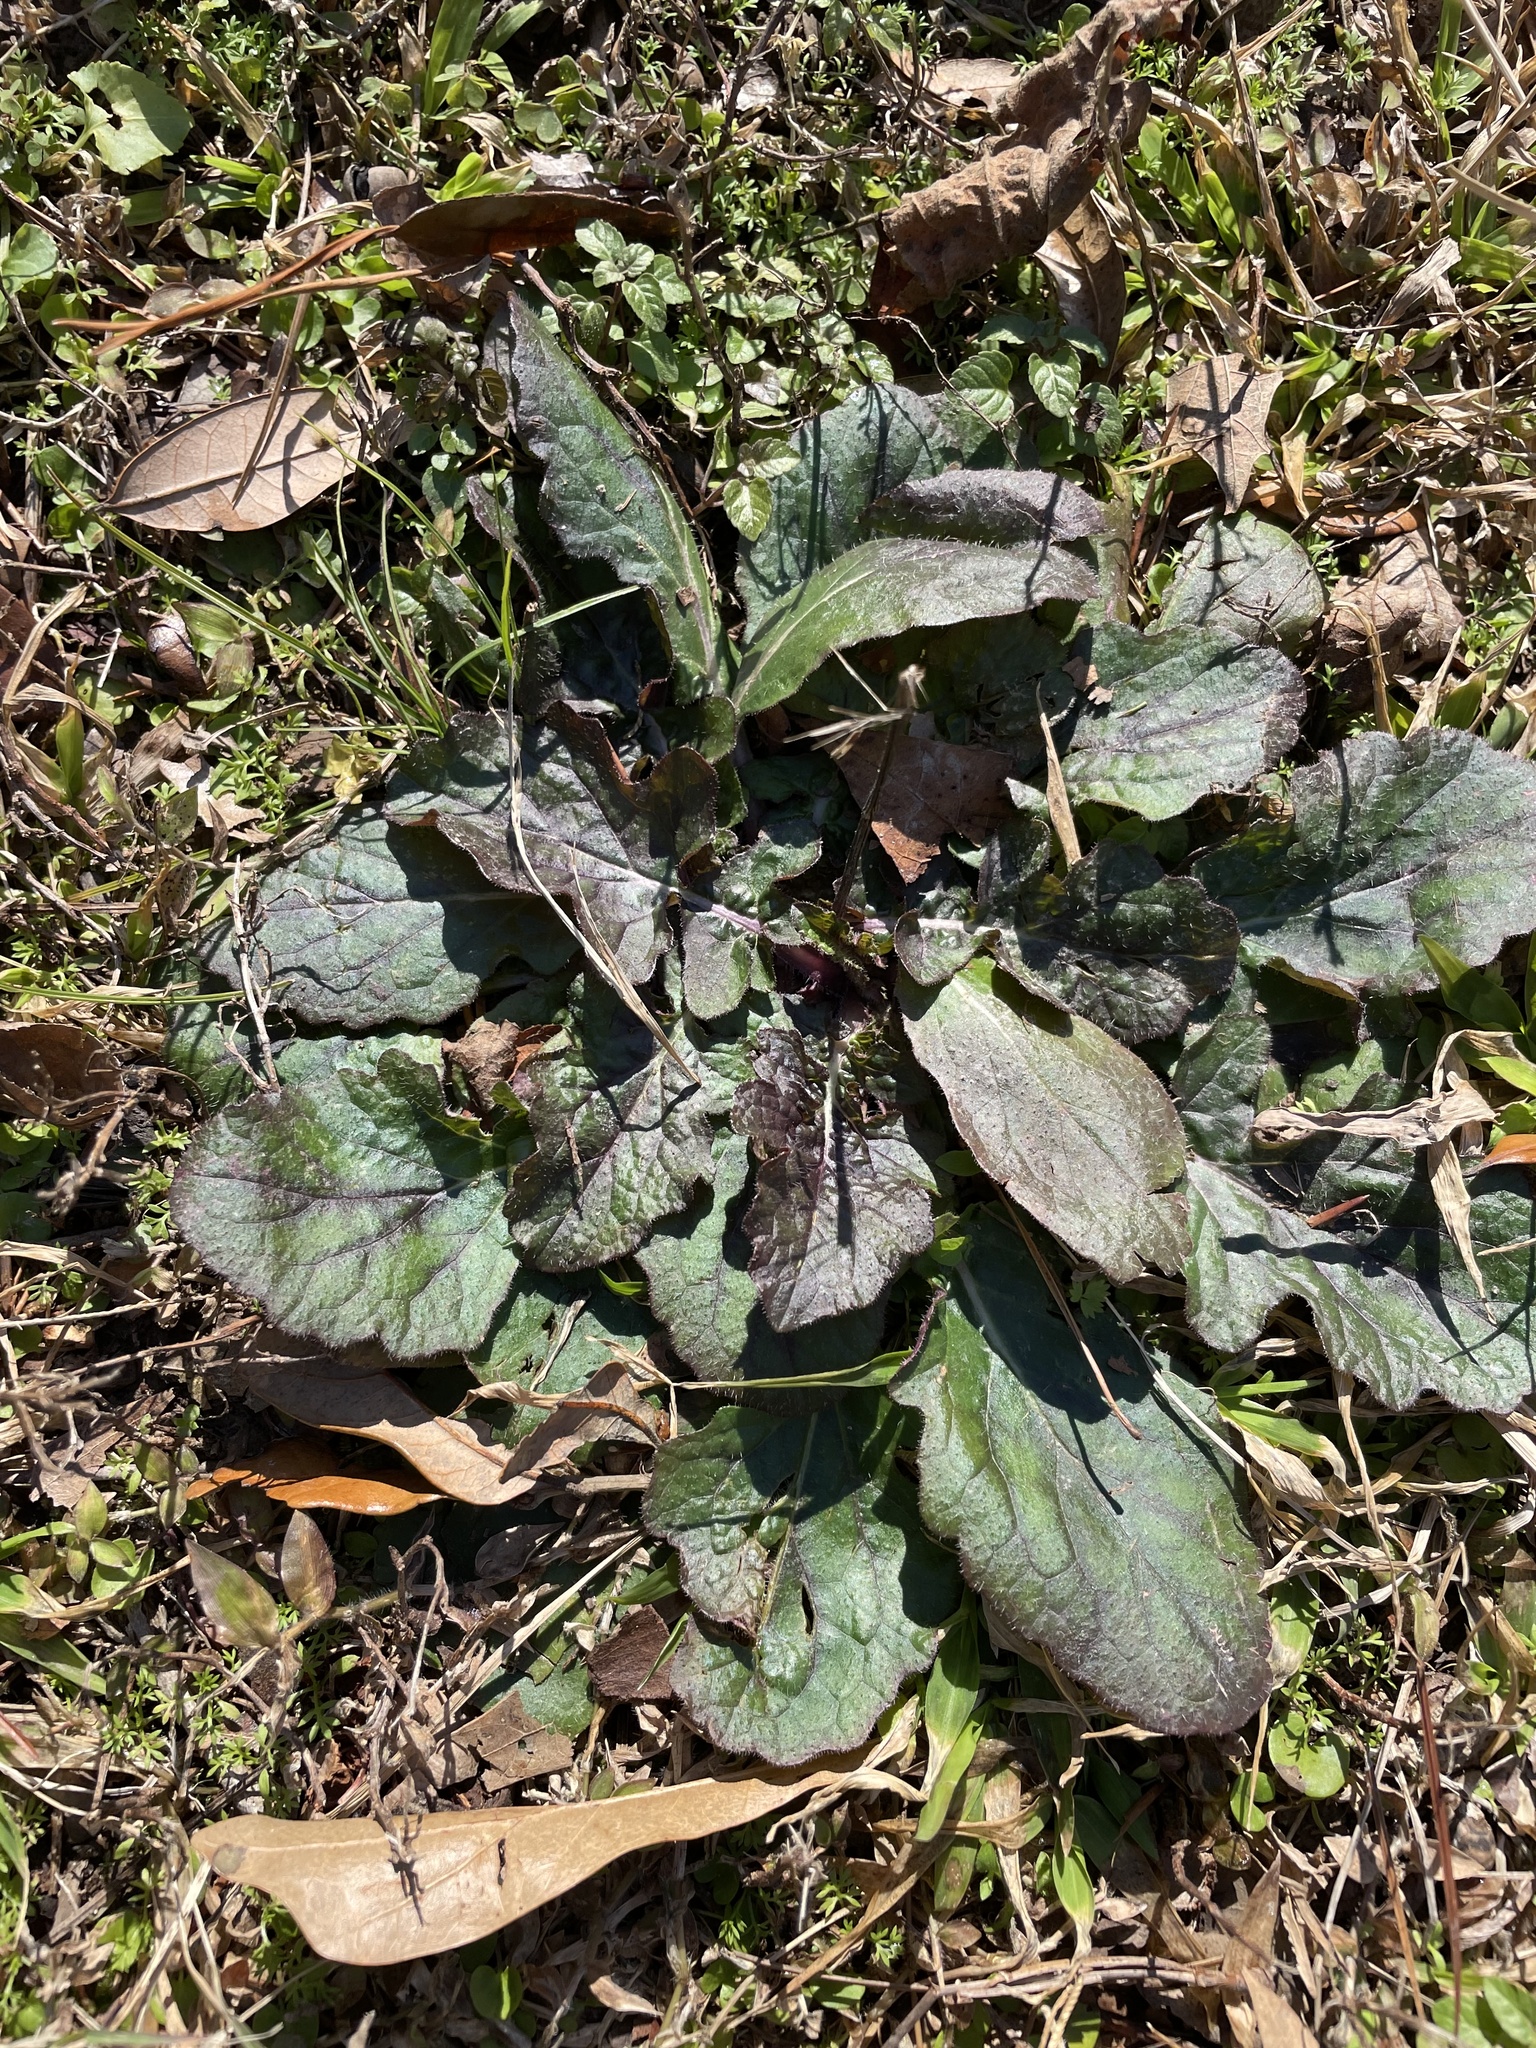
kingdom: Plantae
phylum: Tracheophyta
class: Magnoliopsida
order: Lamiales
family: Lamiaceae
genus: Salvia
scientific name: Salvia lyrata
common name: Cancerweed
